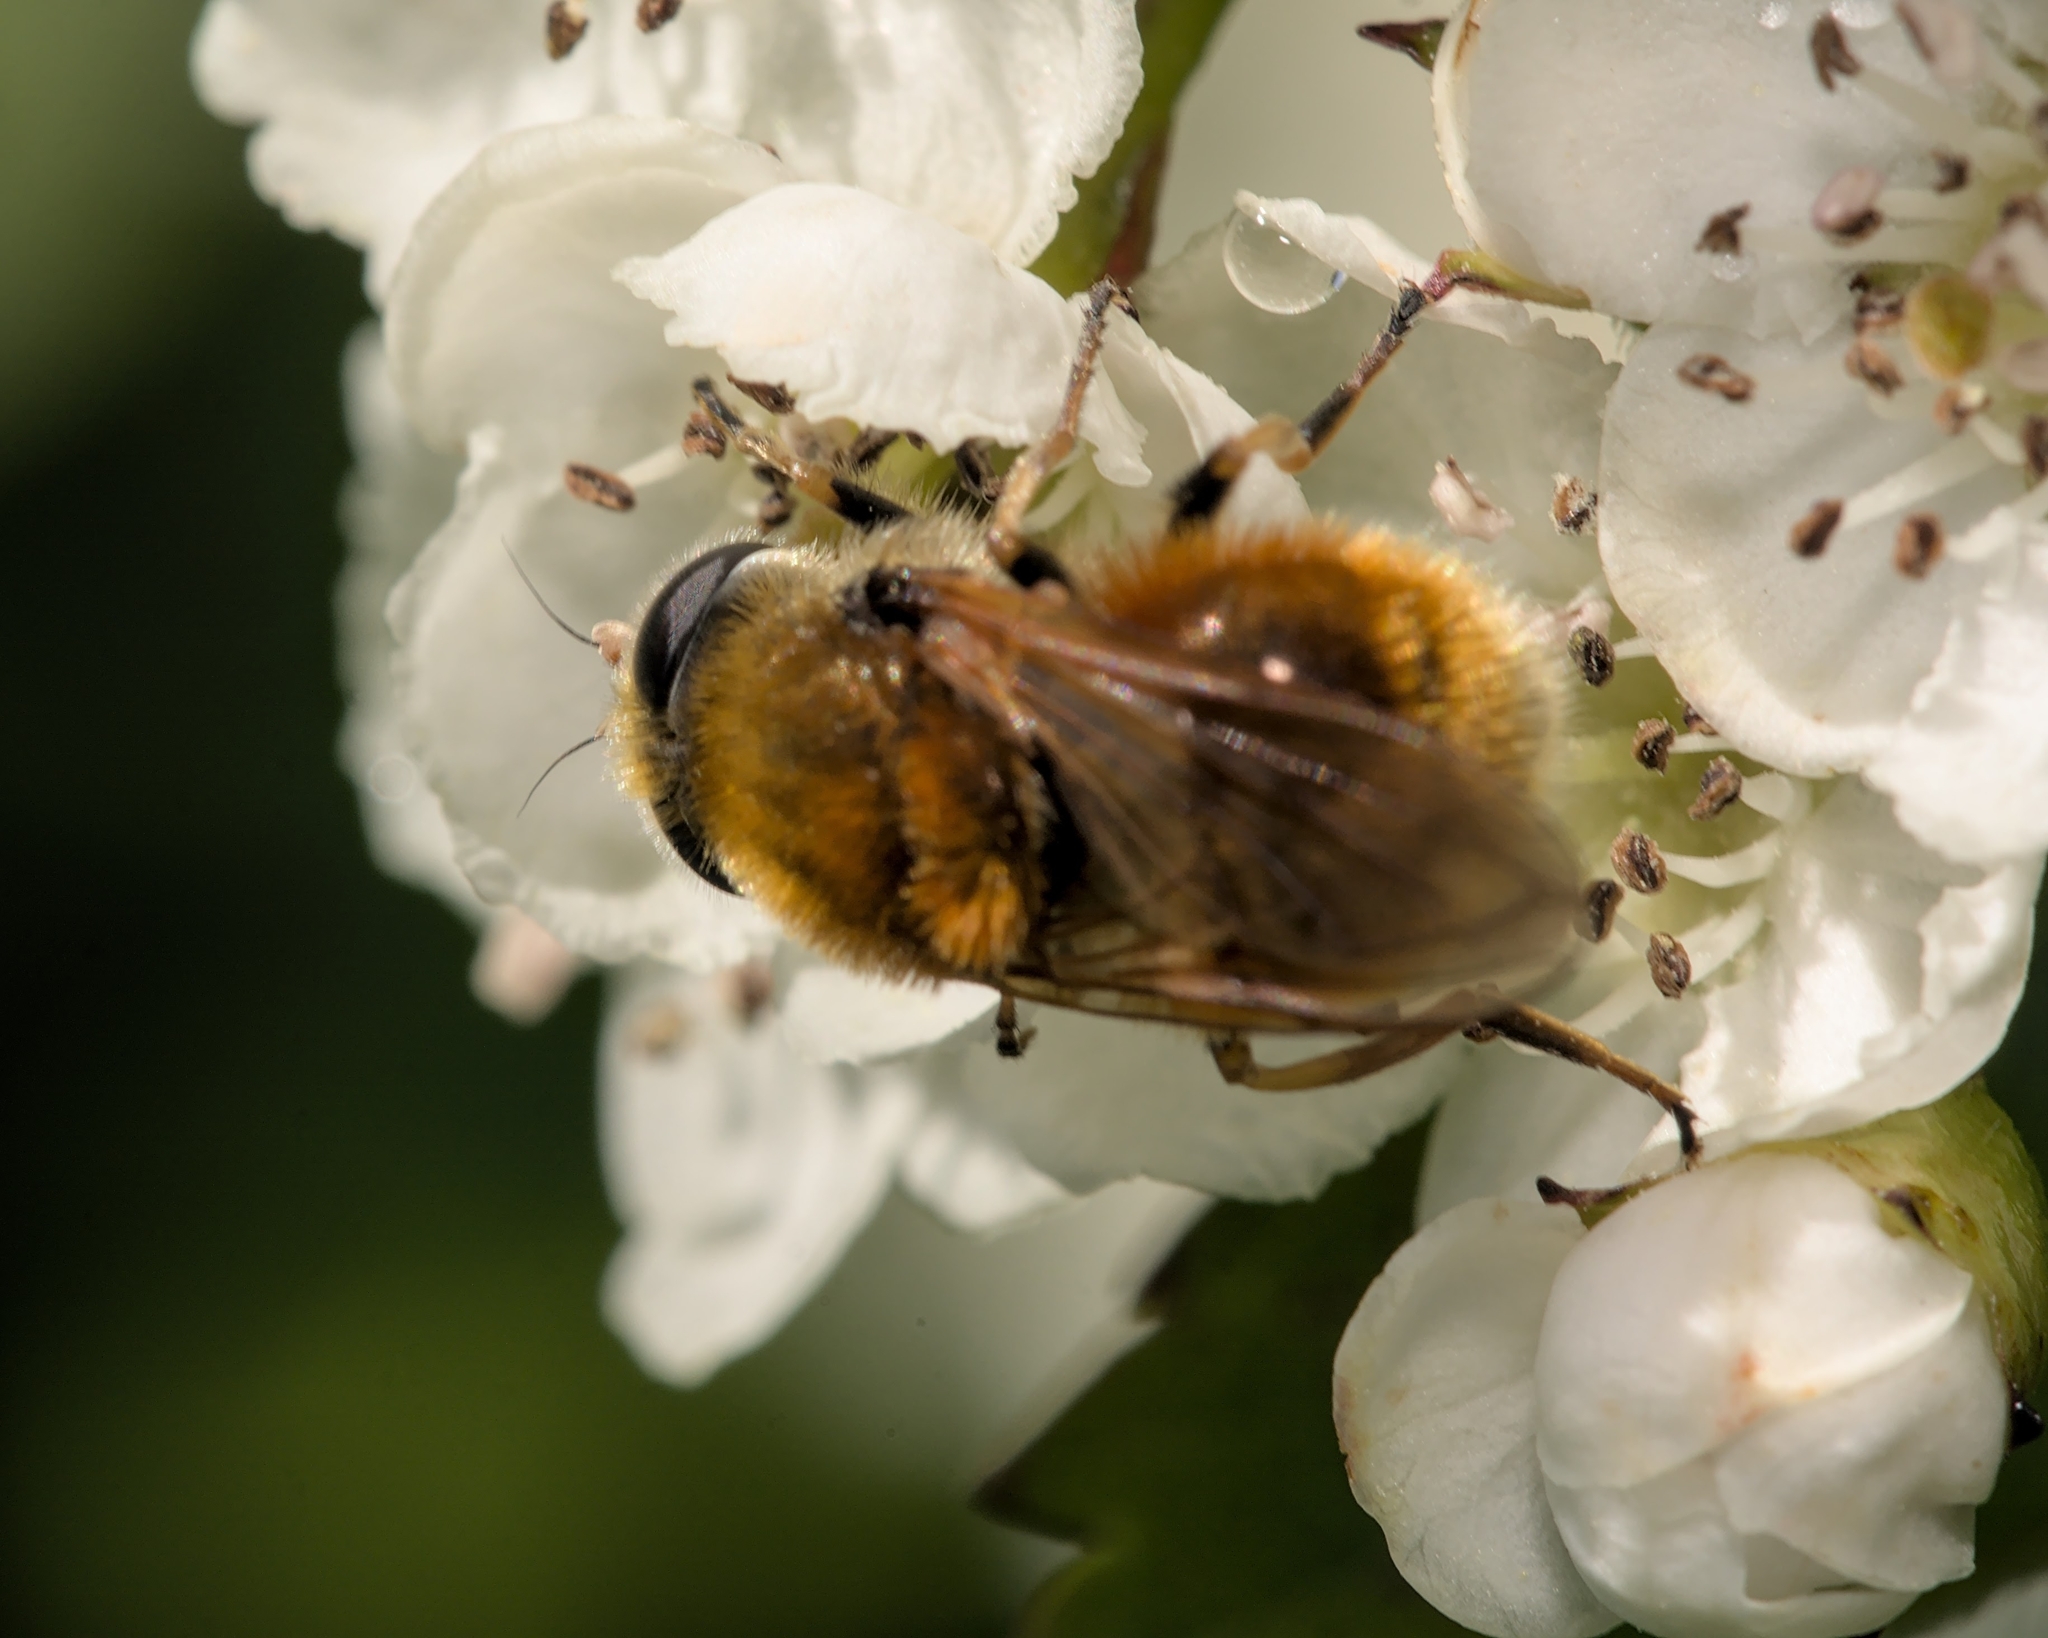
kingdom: Animalia
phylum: Arthropoda
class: Insecta
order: Diptera
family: Syrphidae
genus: Cheilosia
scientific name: Cheilosia chrysocoma
